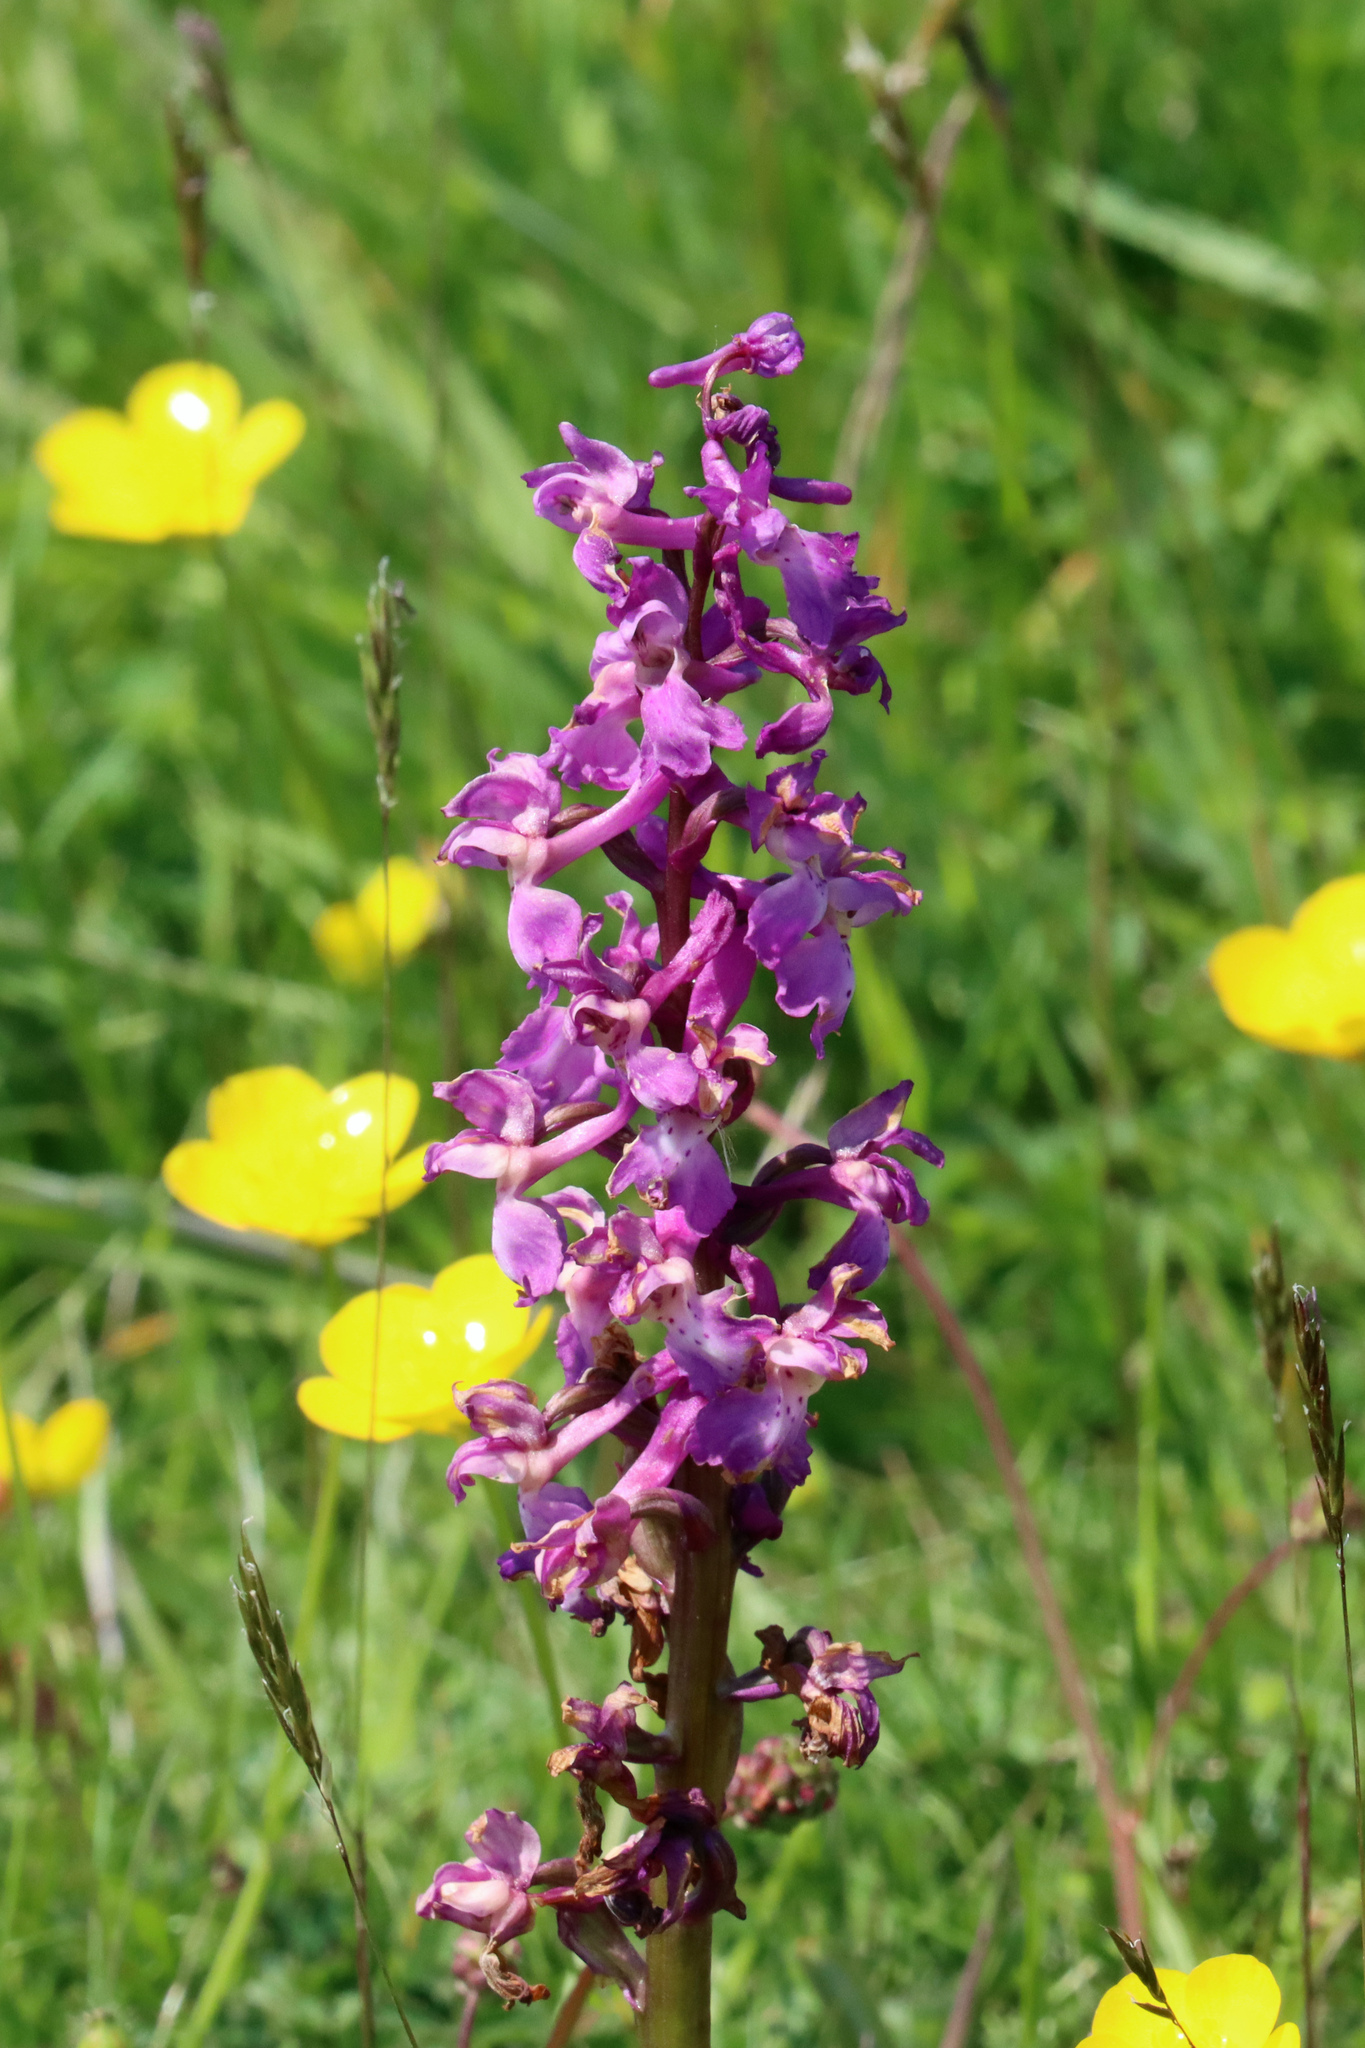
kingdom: Plantae
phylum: Tracheophyta
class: Liliopsida
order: Asparagales
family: Orchidaceae
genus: Orchis
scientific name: Orchis mascula
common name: Early-purple orchid
